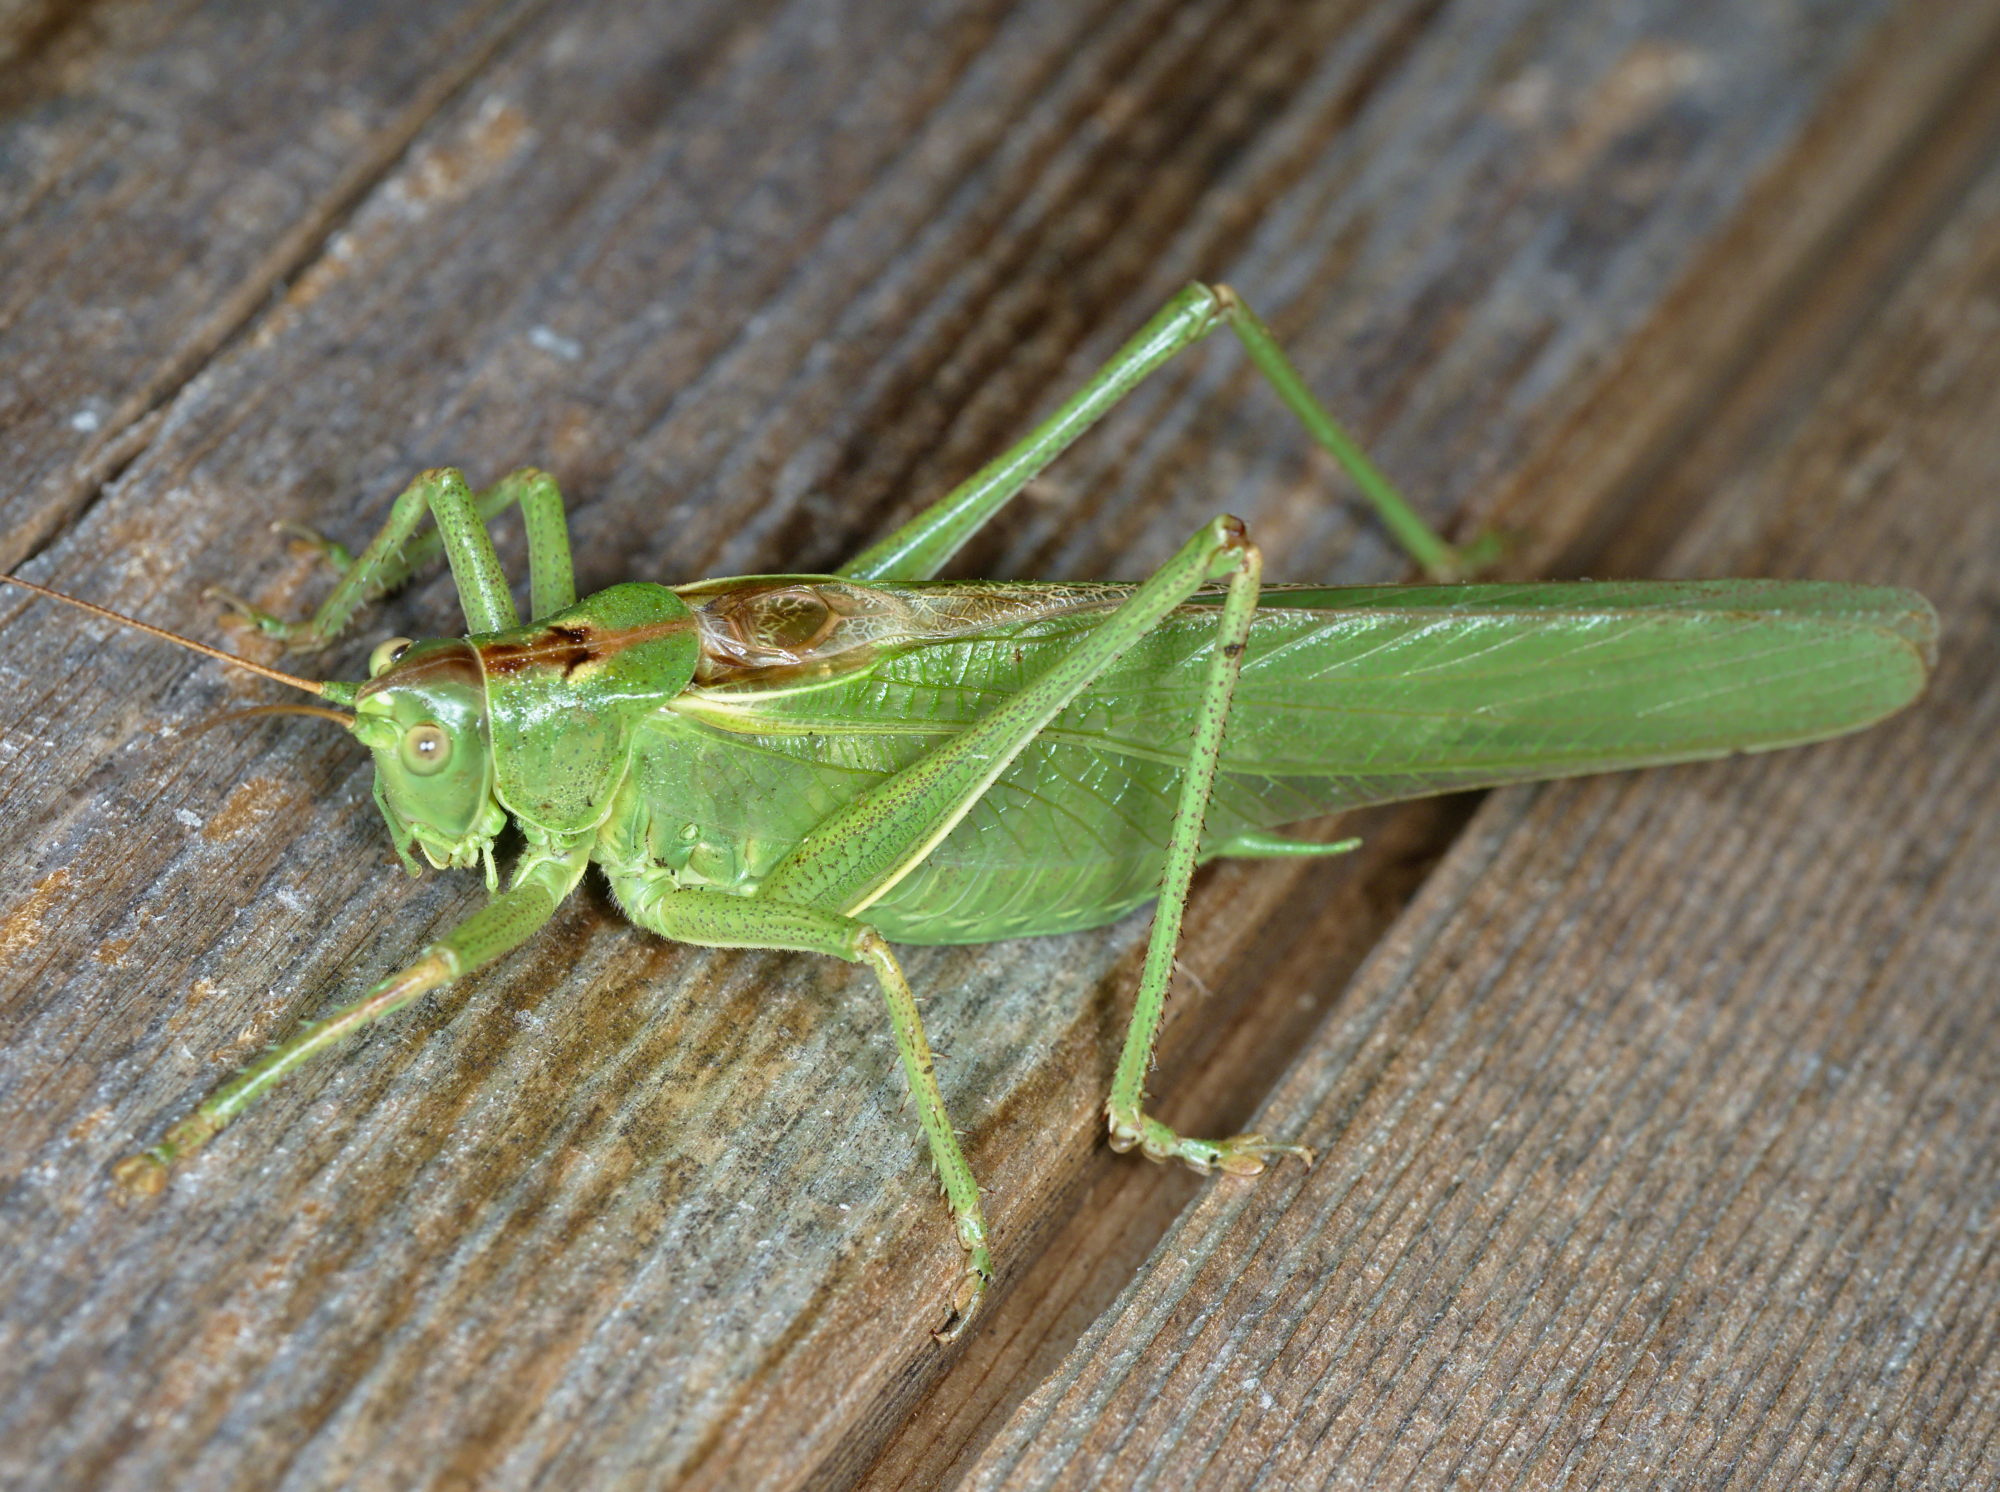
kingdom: Animalia
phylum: Arthropoda
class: Insecta
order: Orthoptera
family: Tettigoniidae
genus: Tettigonia
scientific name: Tettigonia viridissima
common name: Great green bush-cricket
